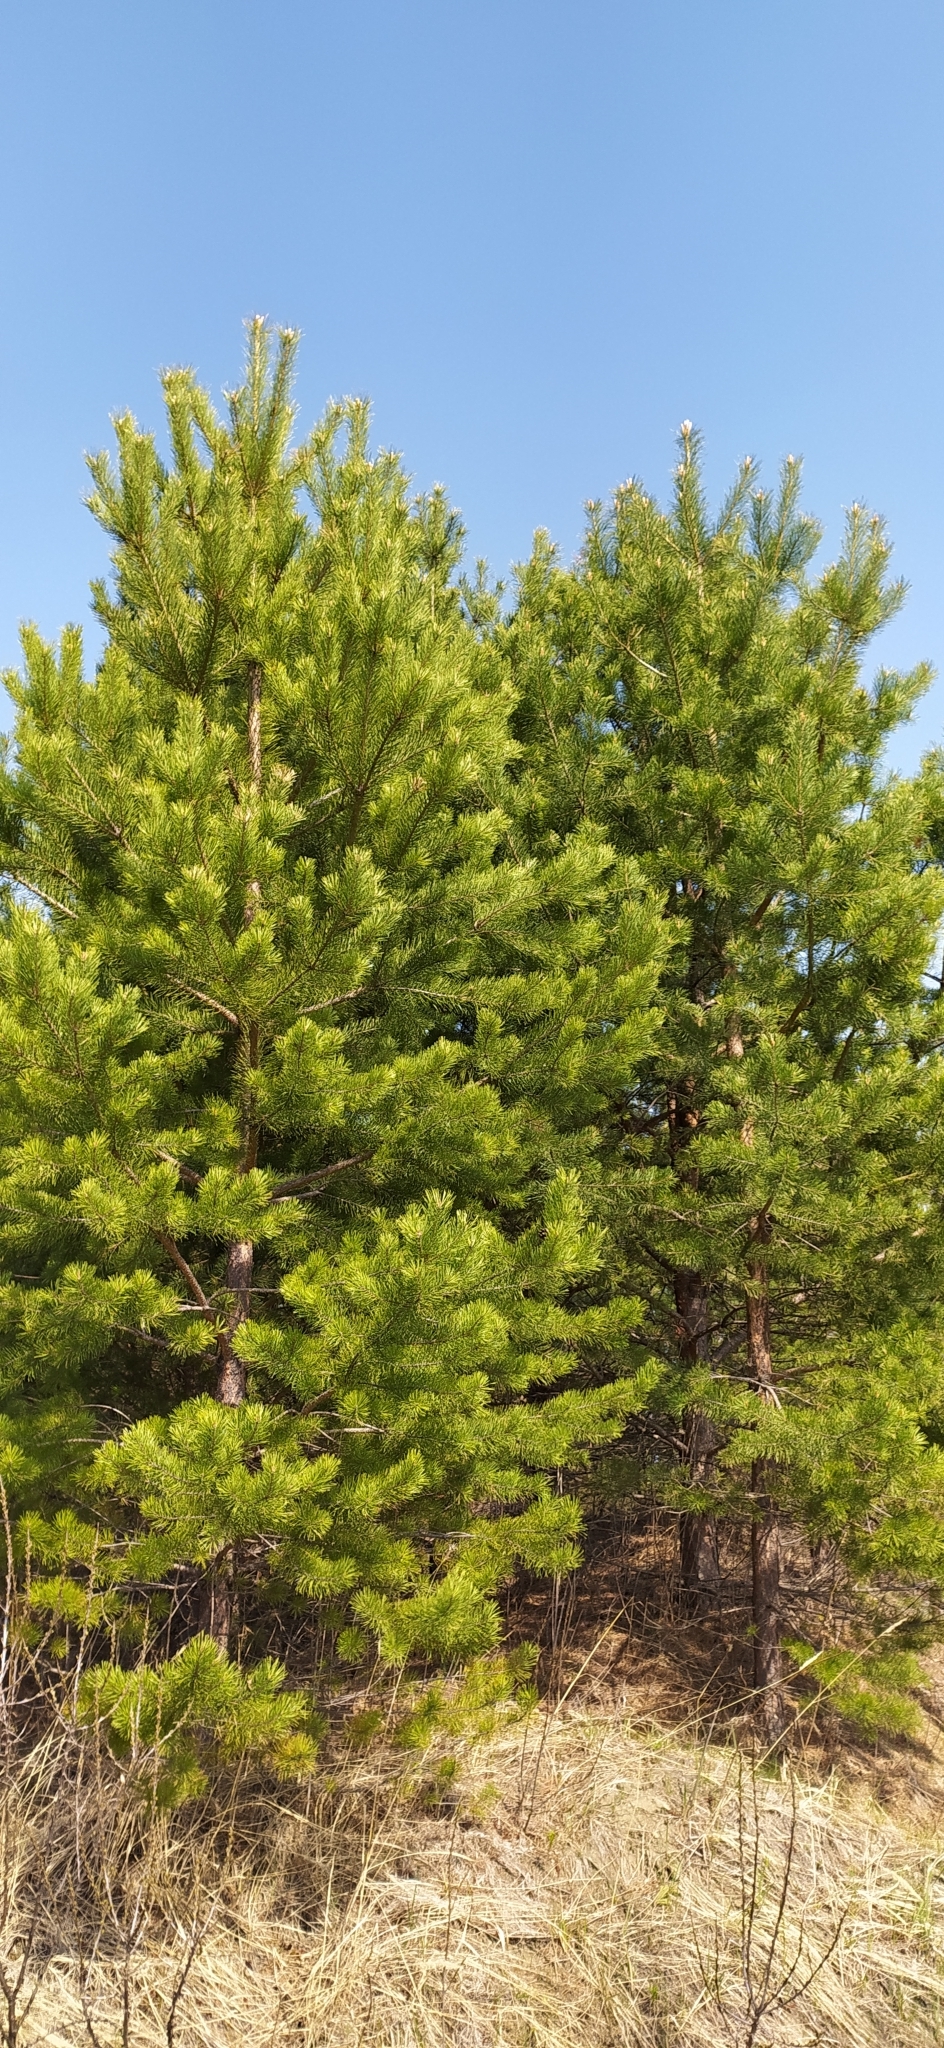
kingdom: Plantae
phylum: Tracheophyta
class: Pinopsida
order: Pinales
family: Pinaceae
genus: Pinus
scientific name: Pinus sylvestris
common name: Scots pine
